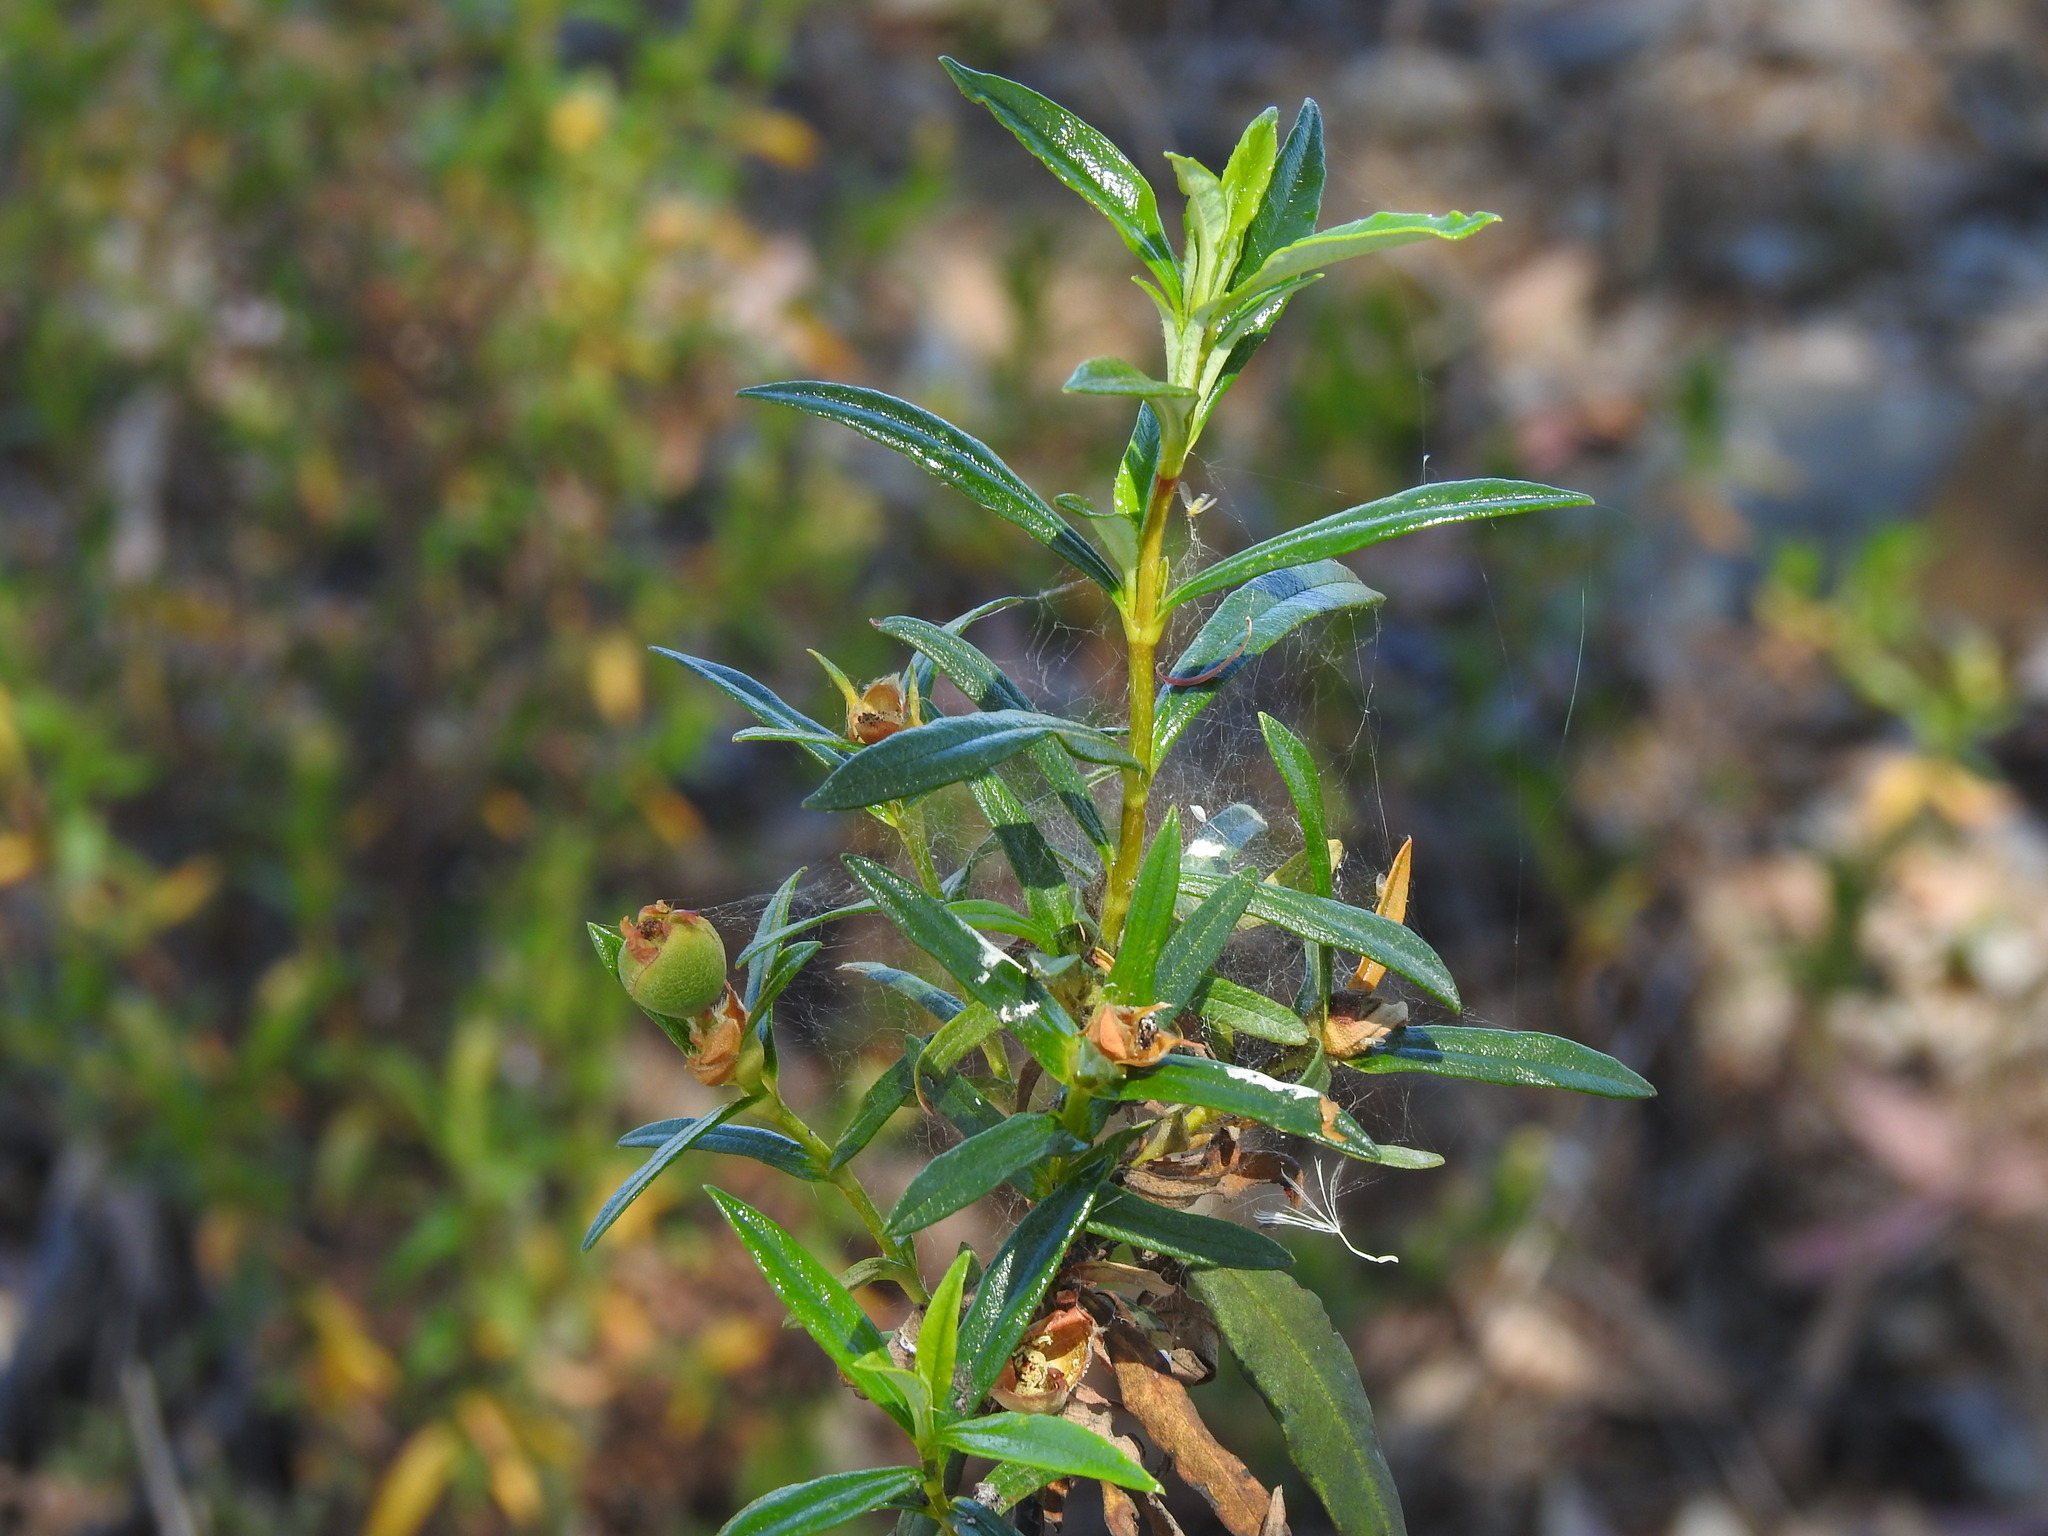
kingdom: Plantae
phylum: Tracheophyta
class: Magnoliopsida
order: Malvales
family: Cistaceae
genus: Cistus
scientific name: Cistus ladanifer
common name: Common gum cistus
